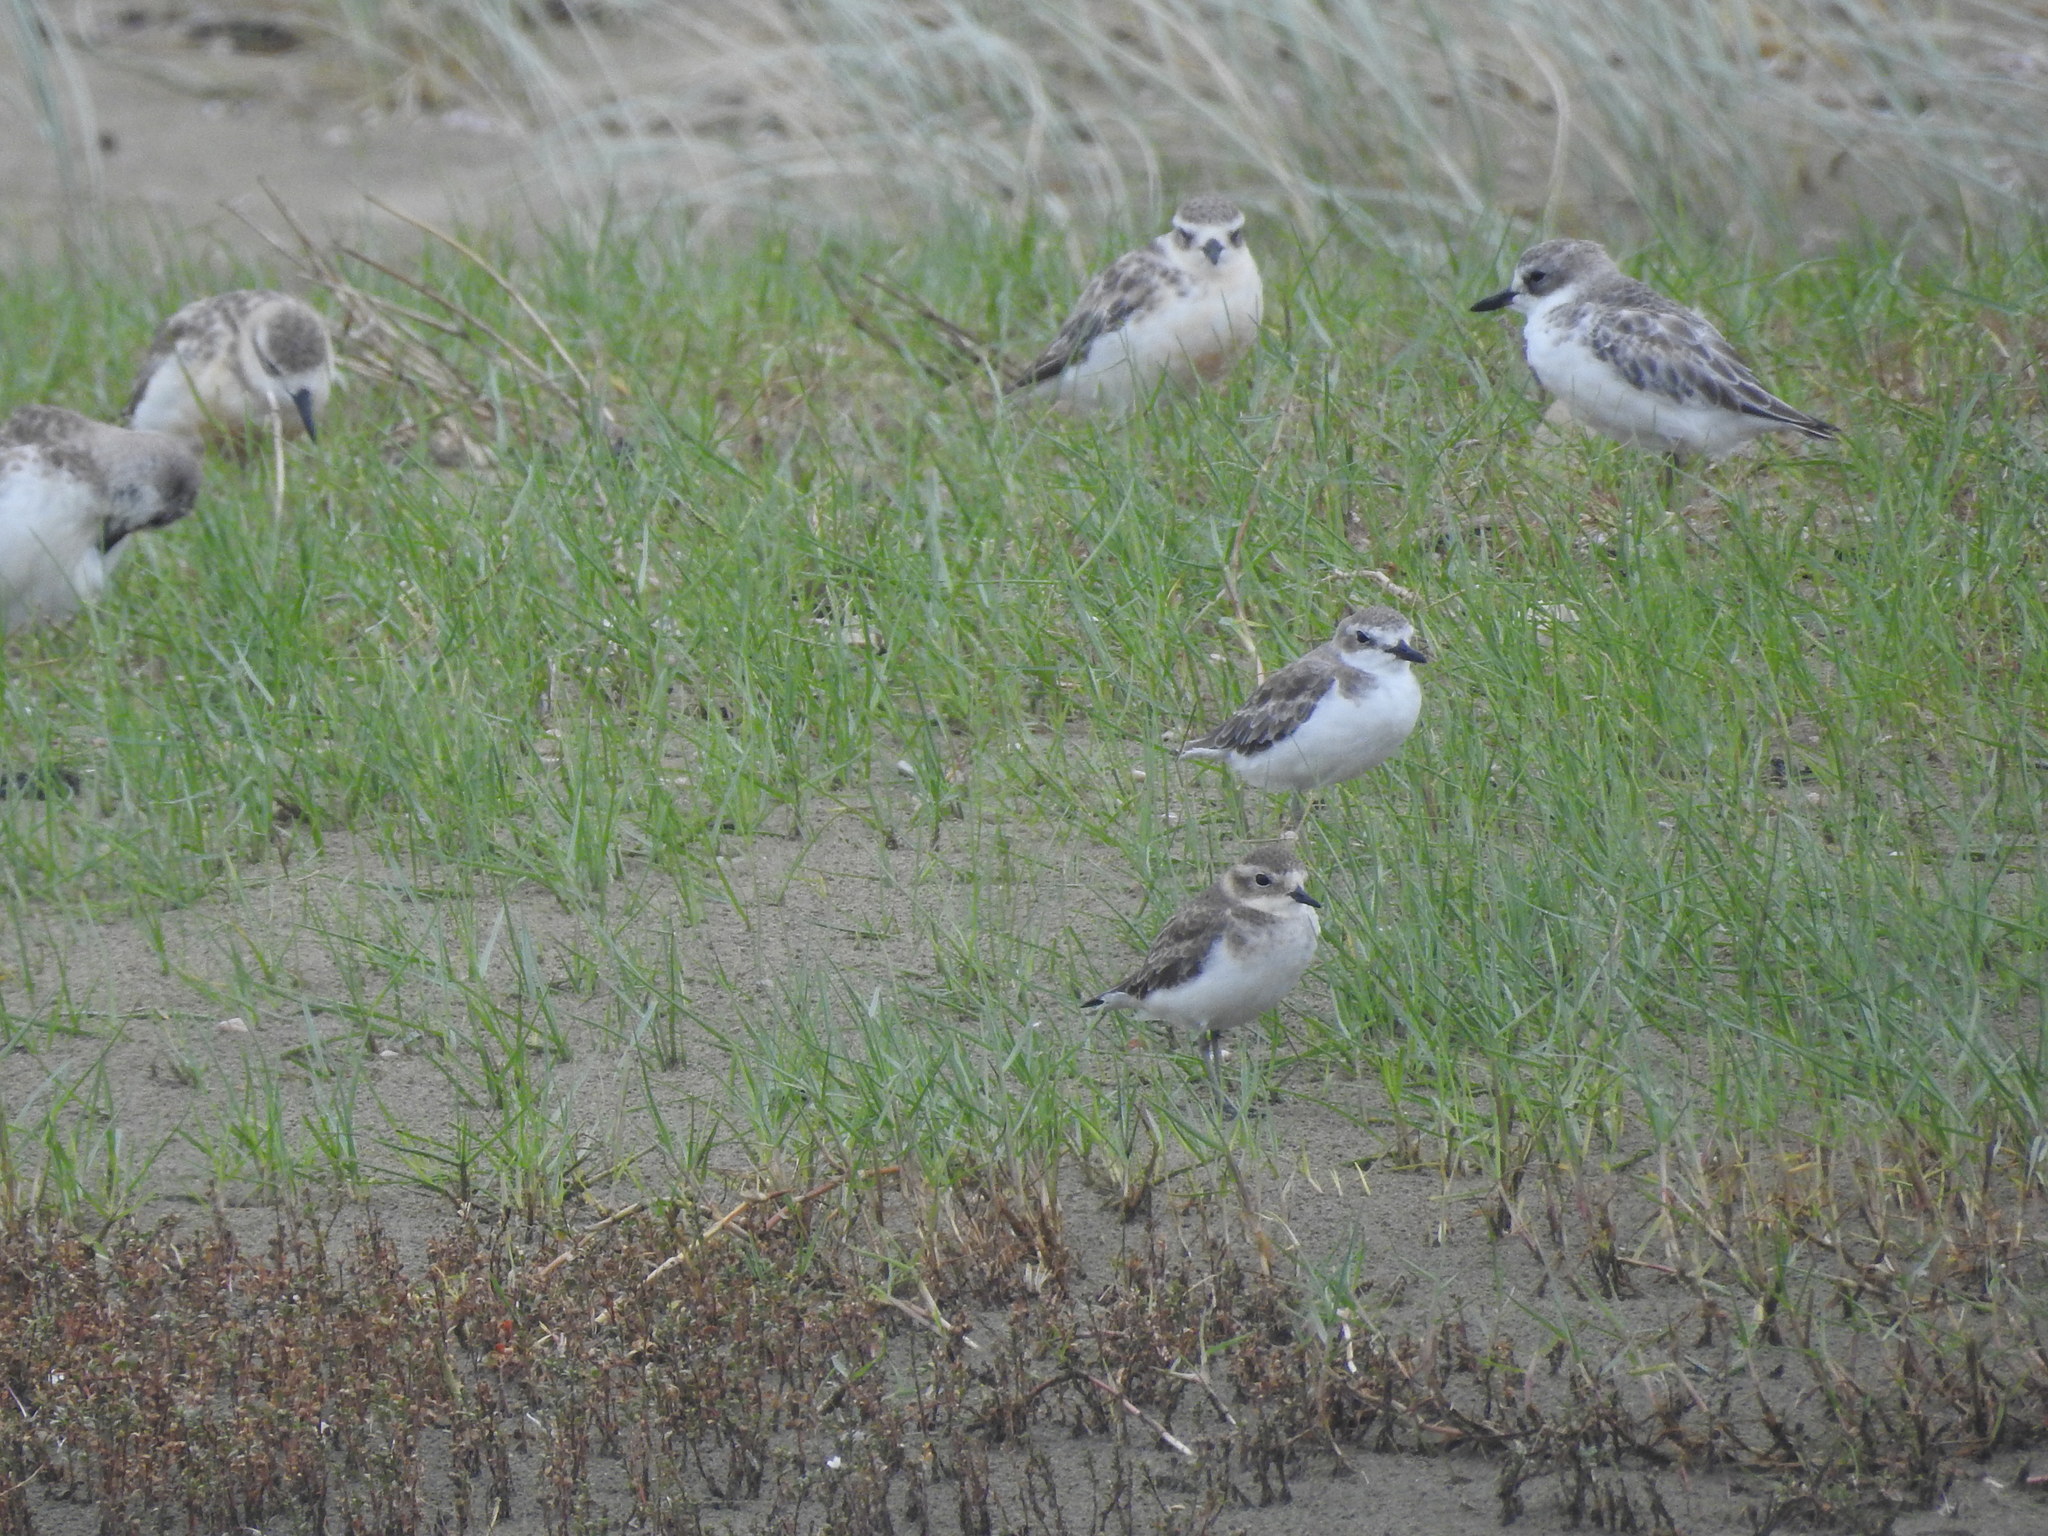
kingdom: Animalia
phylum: Chordata
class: Aves
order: Charadriiformes
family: Charadriidae
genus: Charadrius
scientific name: Charadrius leschenaultii
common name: Greater sand plover
